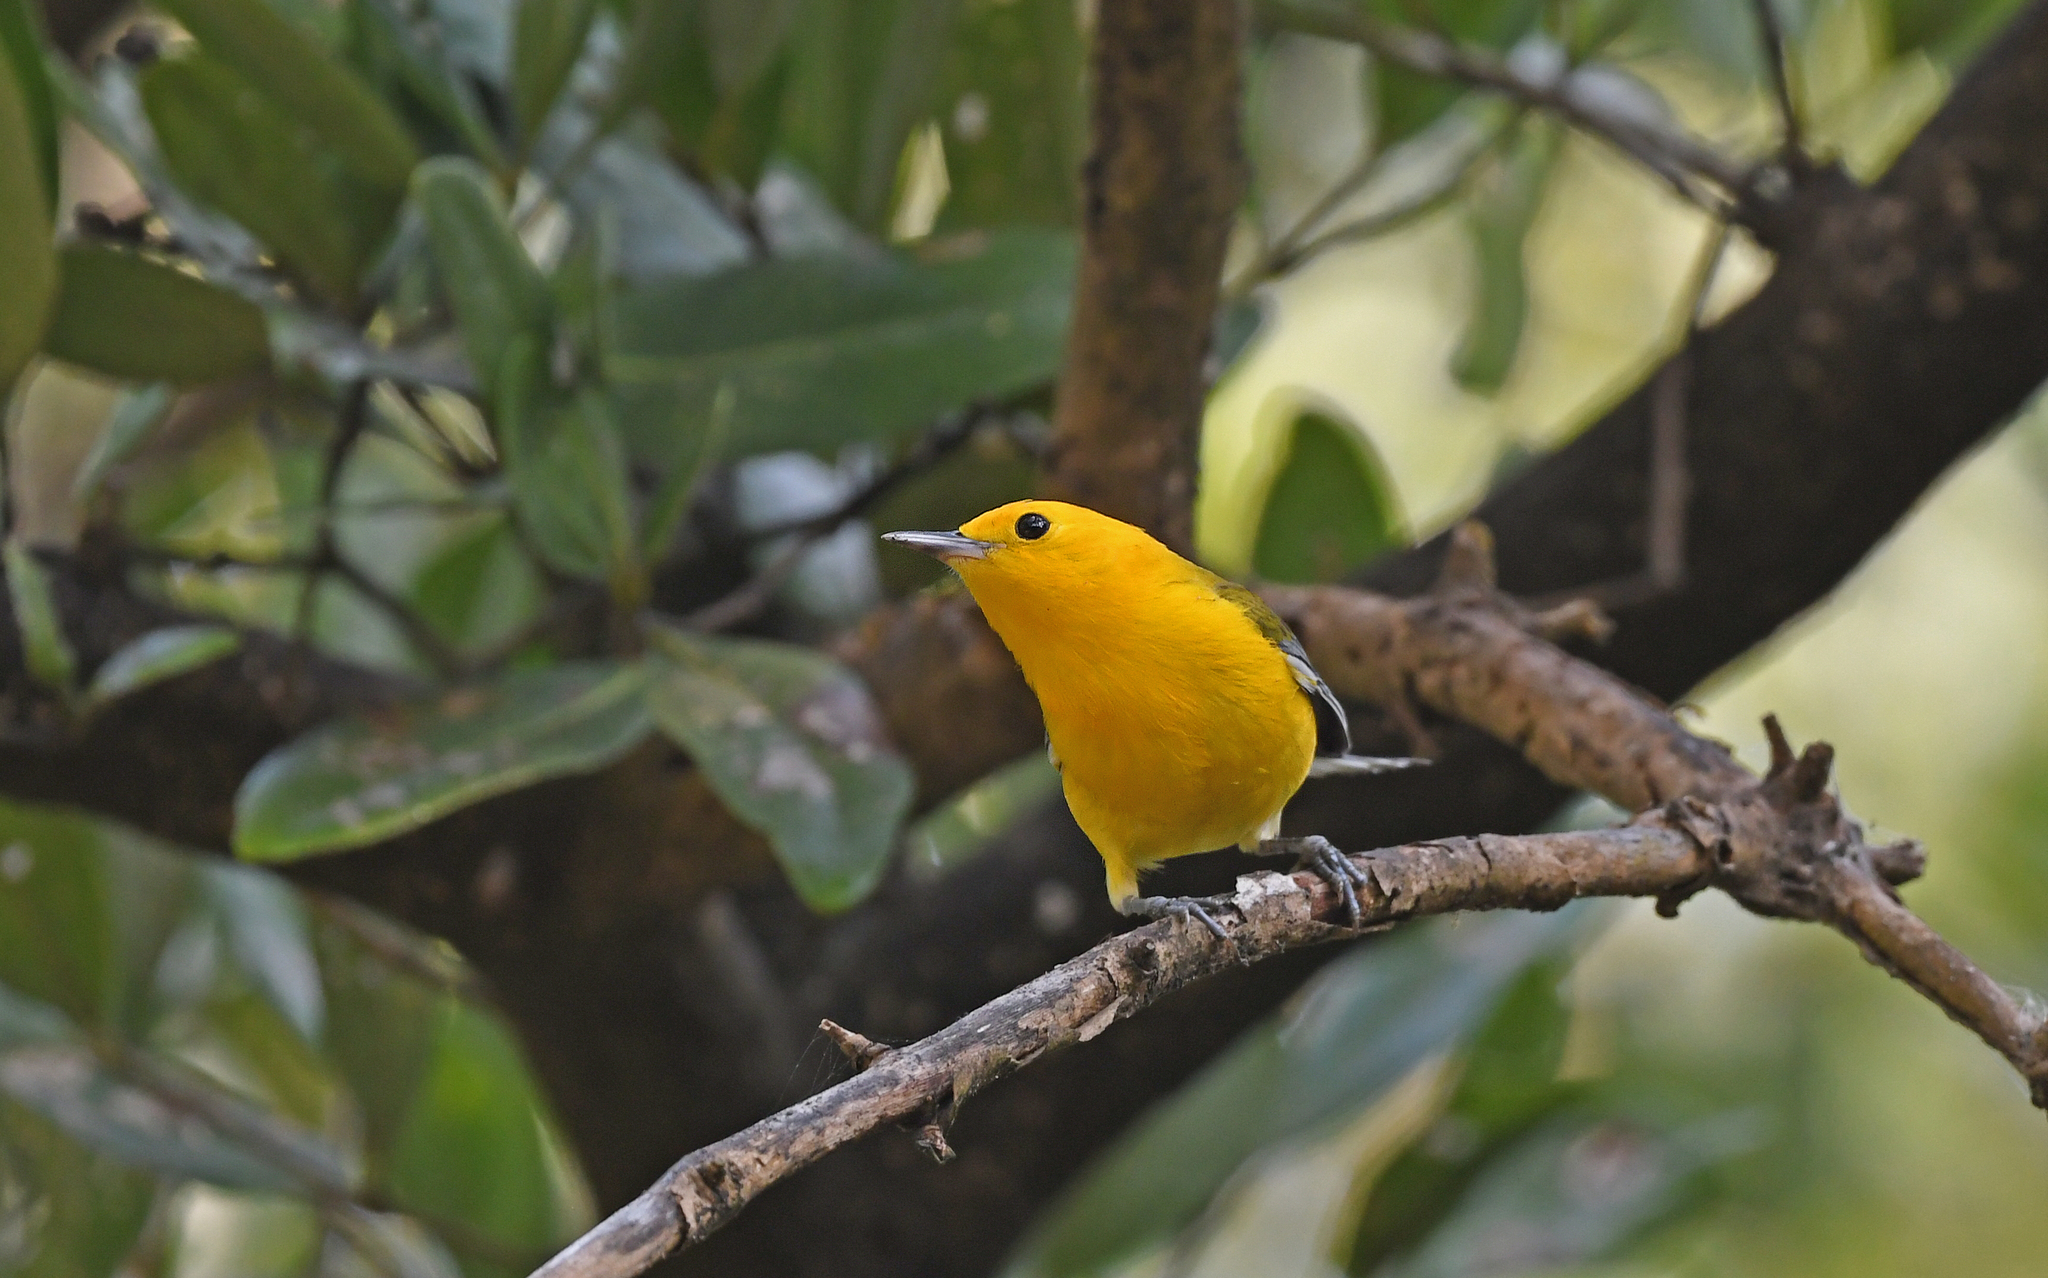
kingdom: Animalia
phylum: Chordata
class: Aves
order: Passeriformes
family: Parulidae
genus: Protonotaria
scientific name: Protonotaria citrea
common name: Prothonotary warbler
